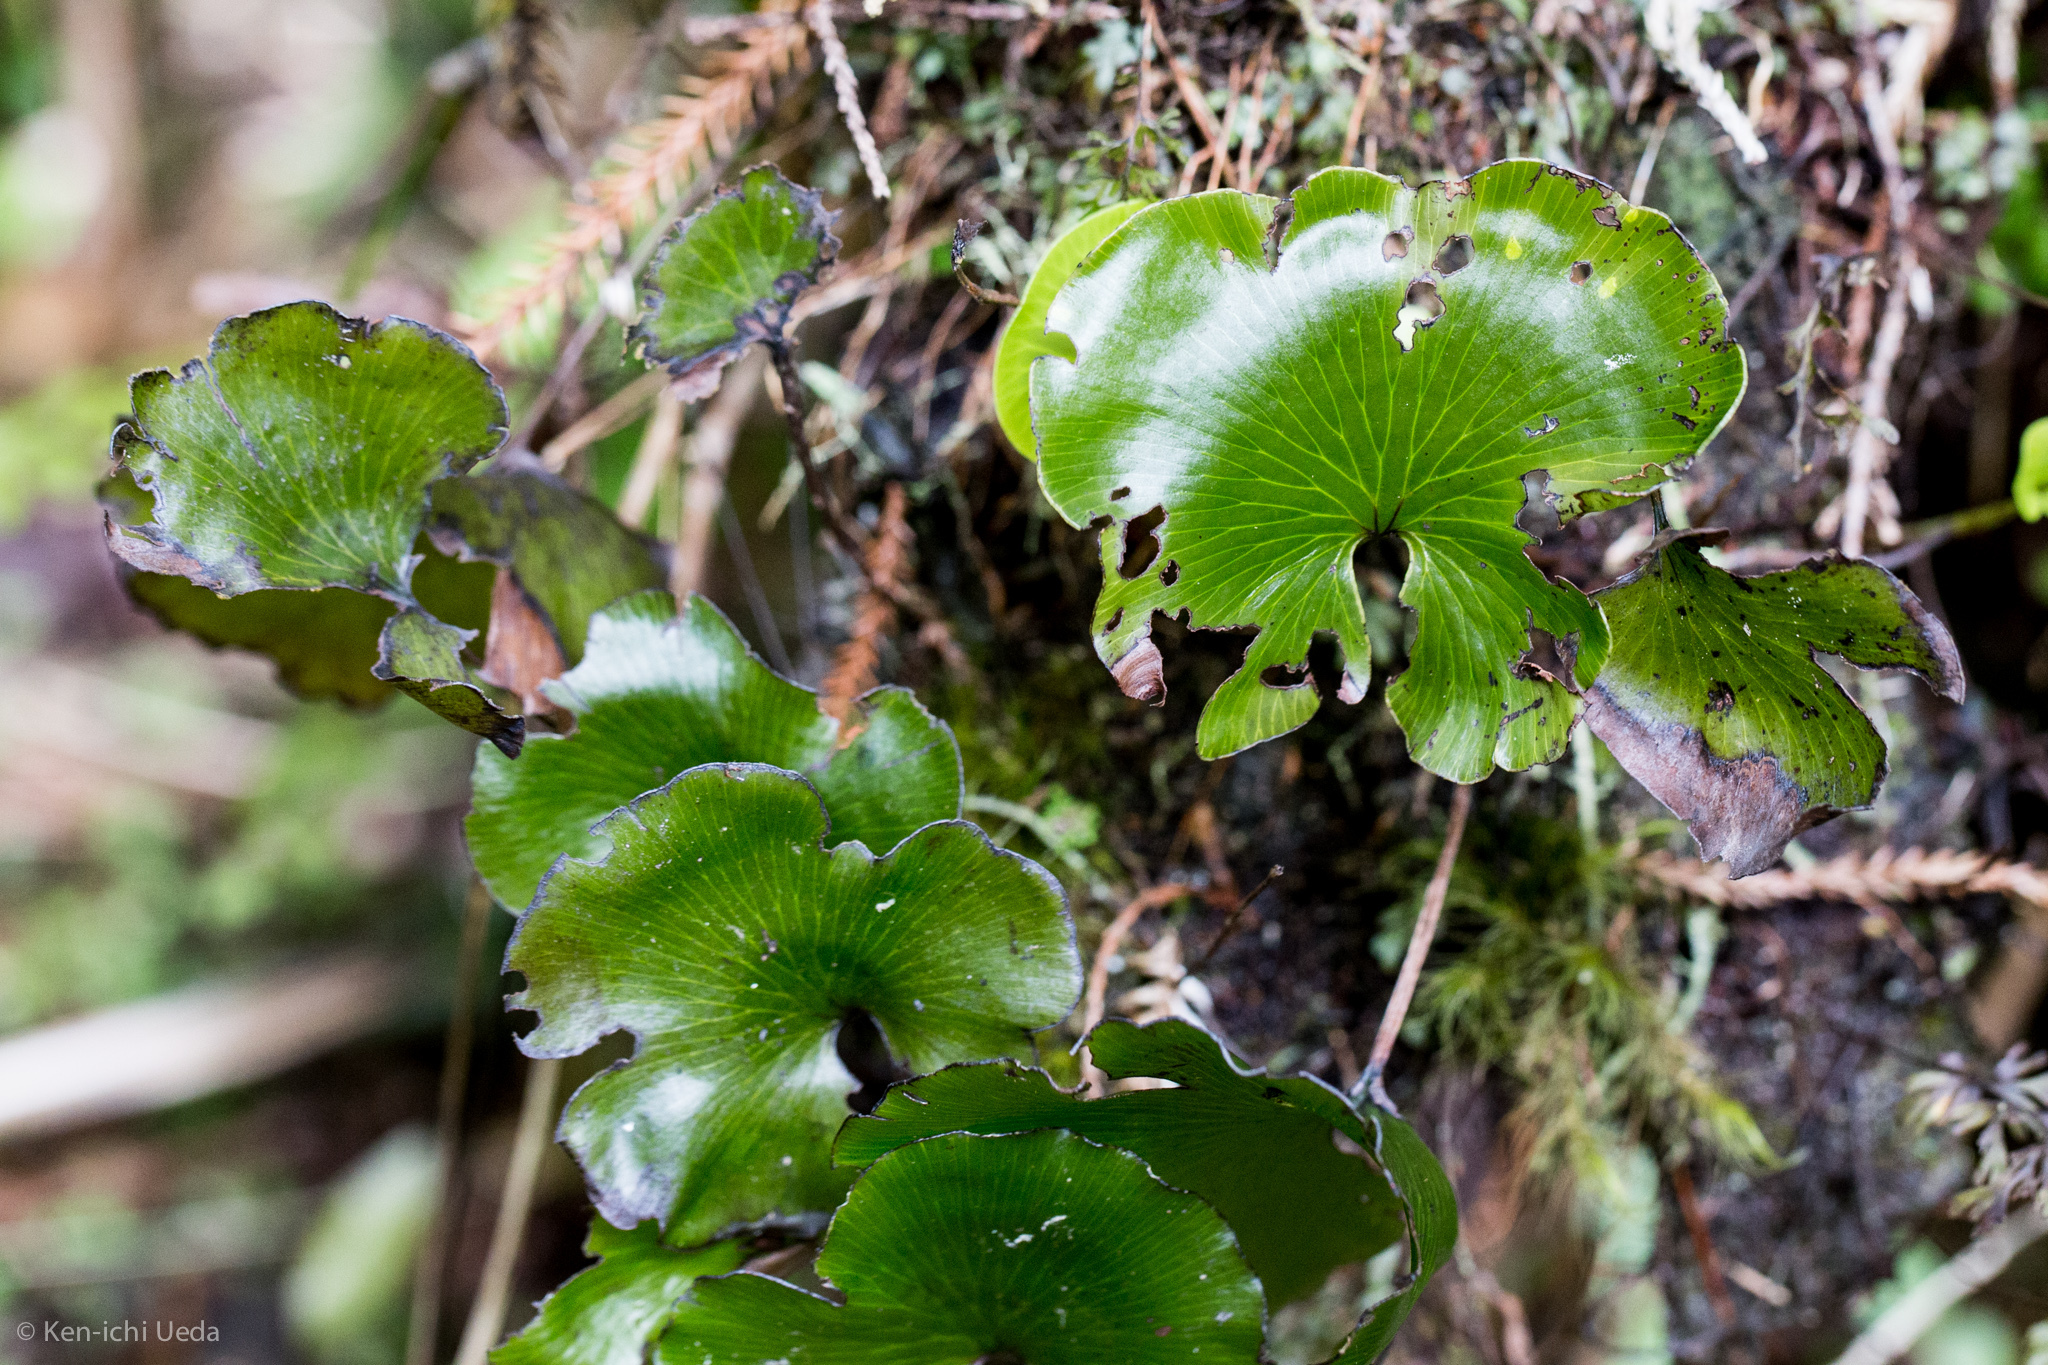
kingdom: Plantae
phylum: Tracheophyta
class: Polypodiopsida
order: Hymenophyllales
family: Hymenophyllaceae
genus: Hymenophyllum
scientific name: Hymenophyllum nephrophyllum
